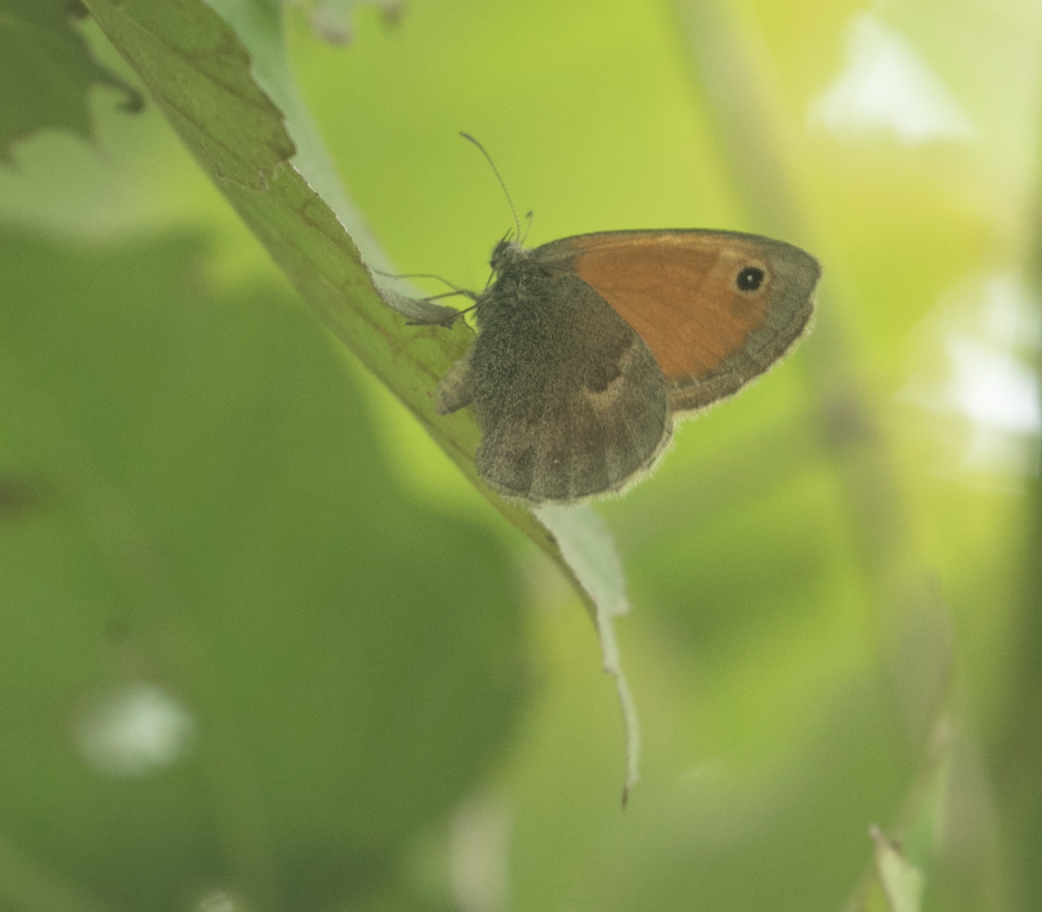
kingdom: Animalia
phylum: Arthropoda
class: Insecta
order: Lepidoptera
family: Nymphalidae
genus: Coenonympha
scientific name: Coenonympha pamphilus
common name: Small heath
